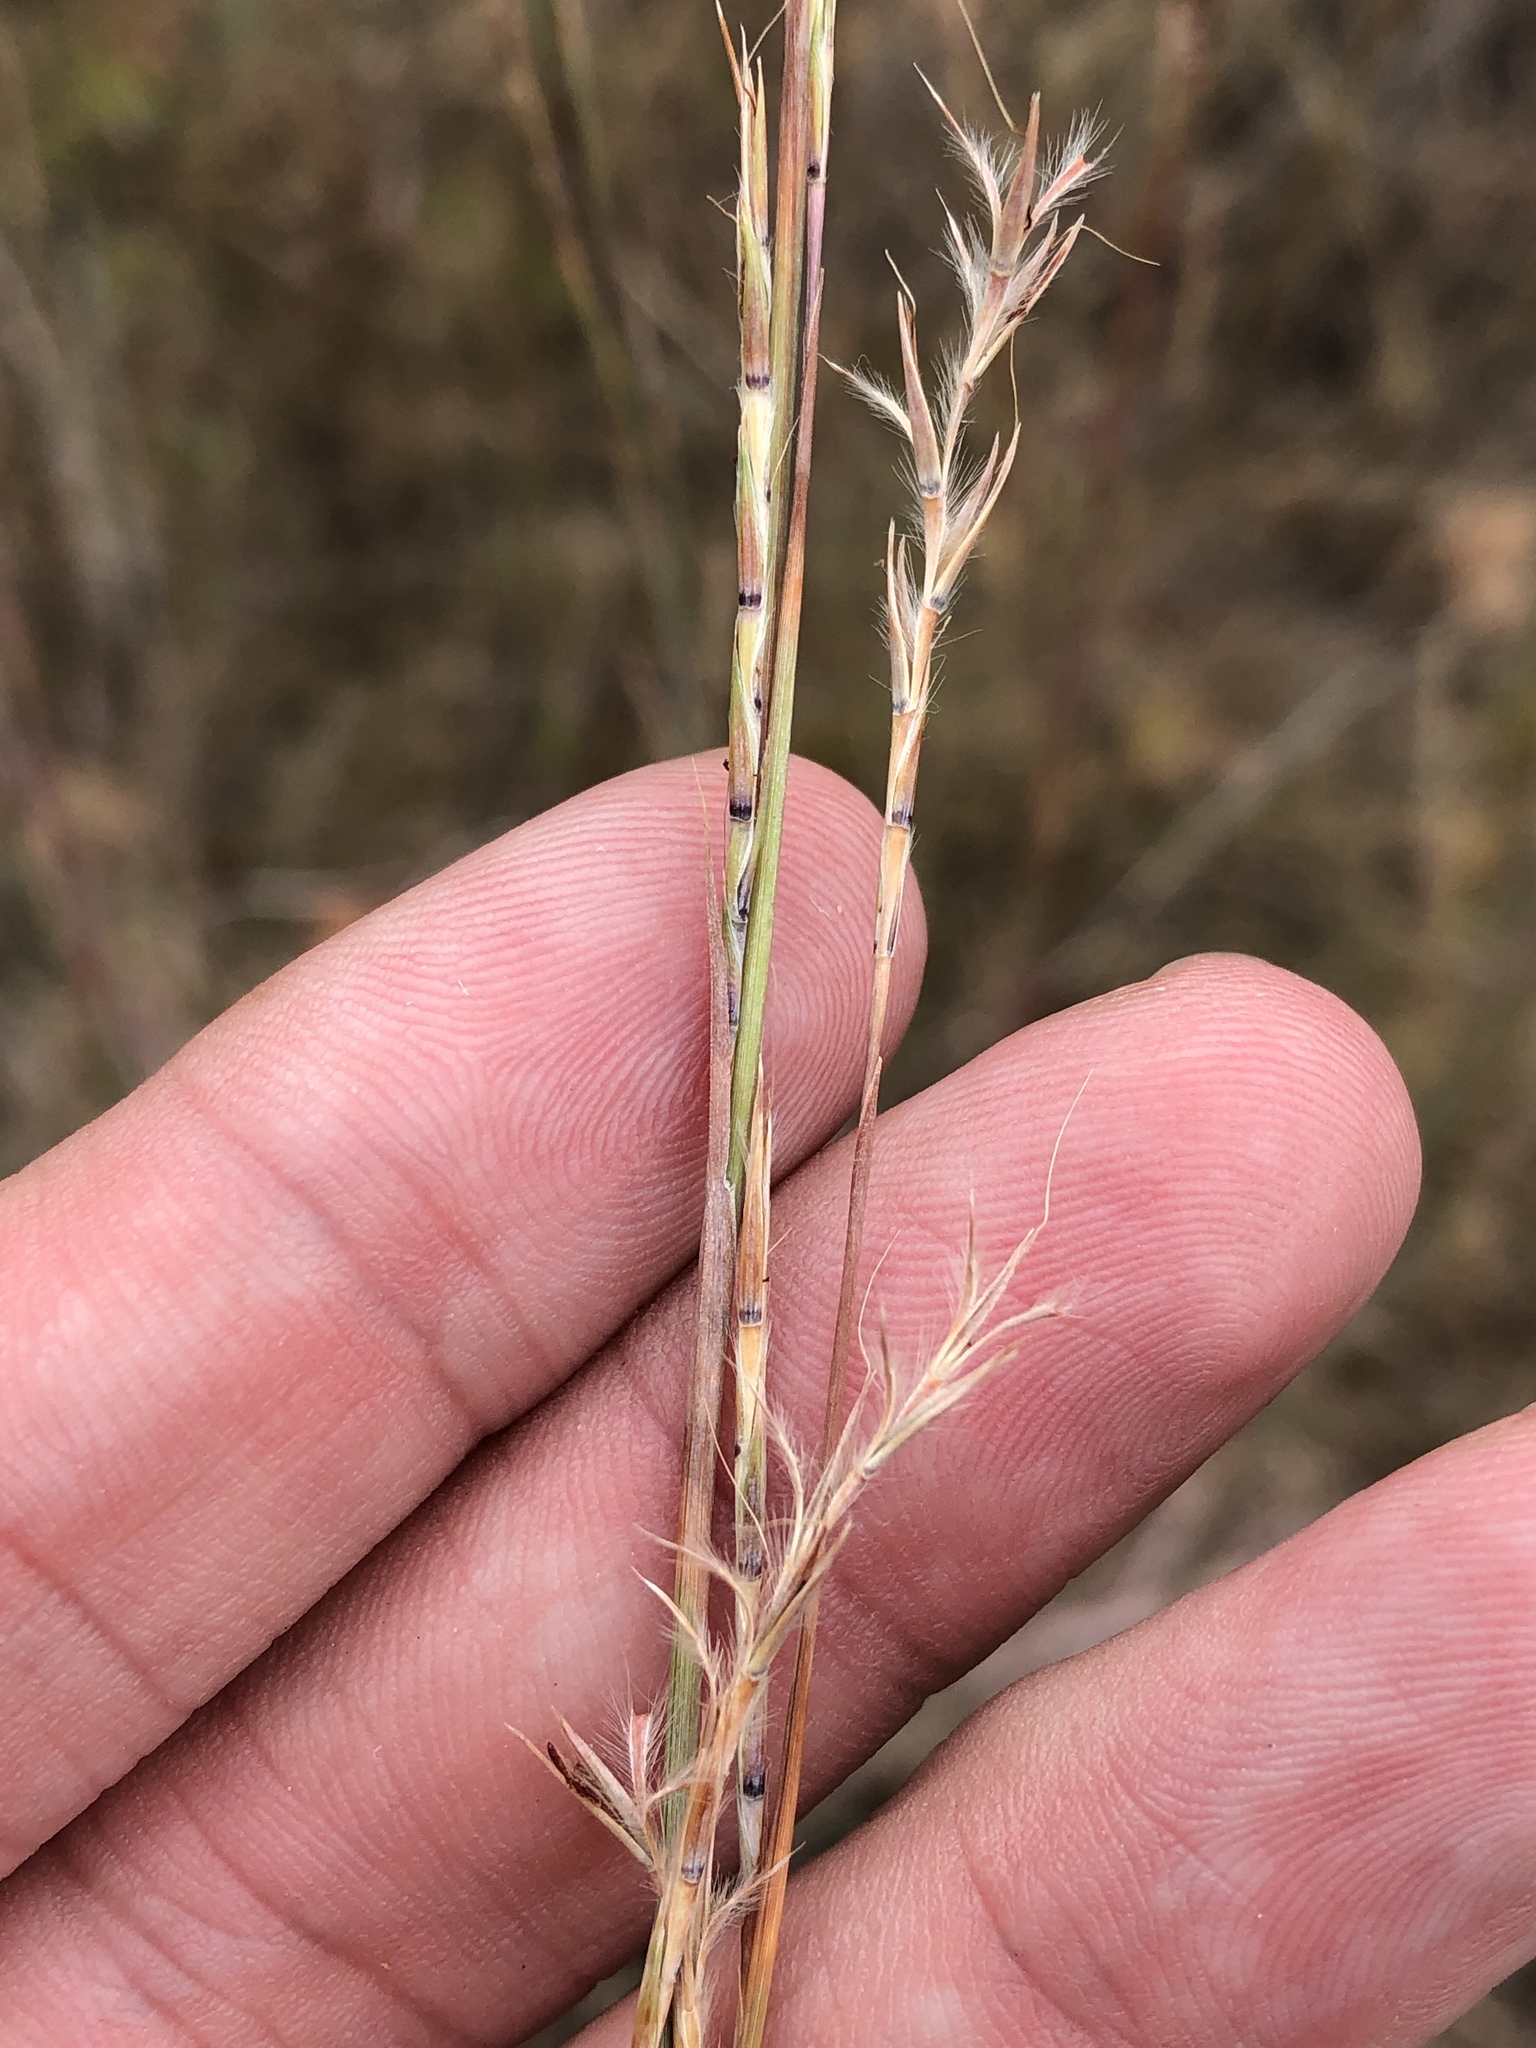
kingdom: Plantae
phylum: Tracheophyta
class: Liliopsida
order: Poales
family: Poaceae
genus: Schizachyrium
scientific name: Schizachyrium scoparium
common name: Little bluestem
